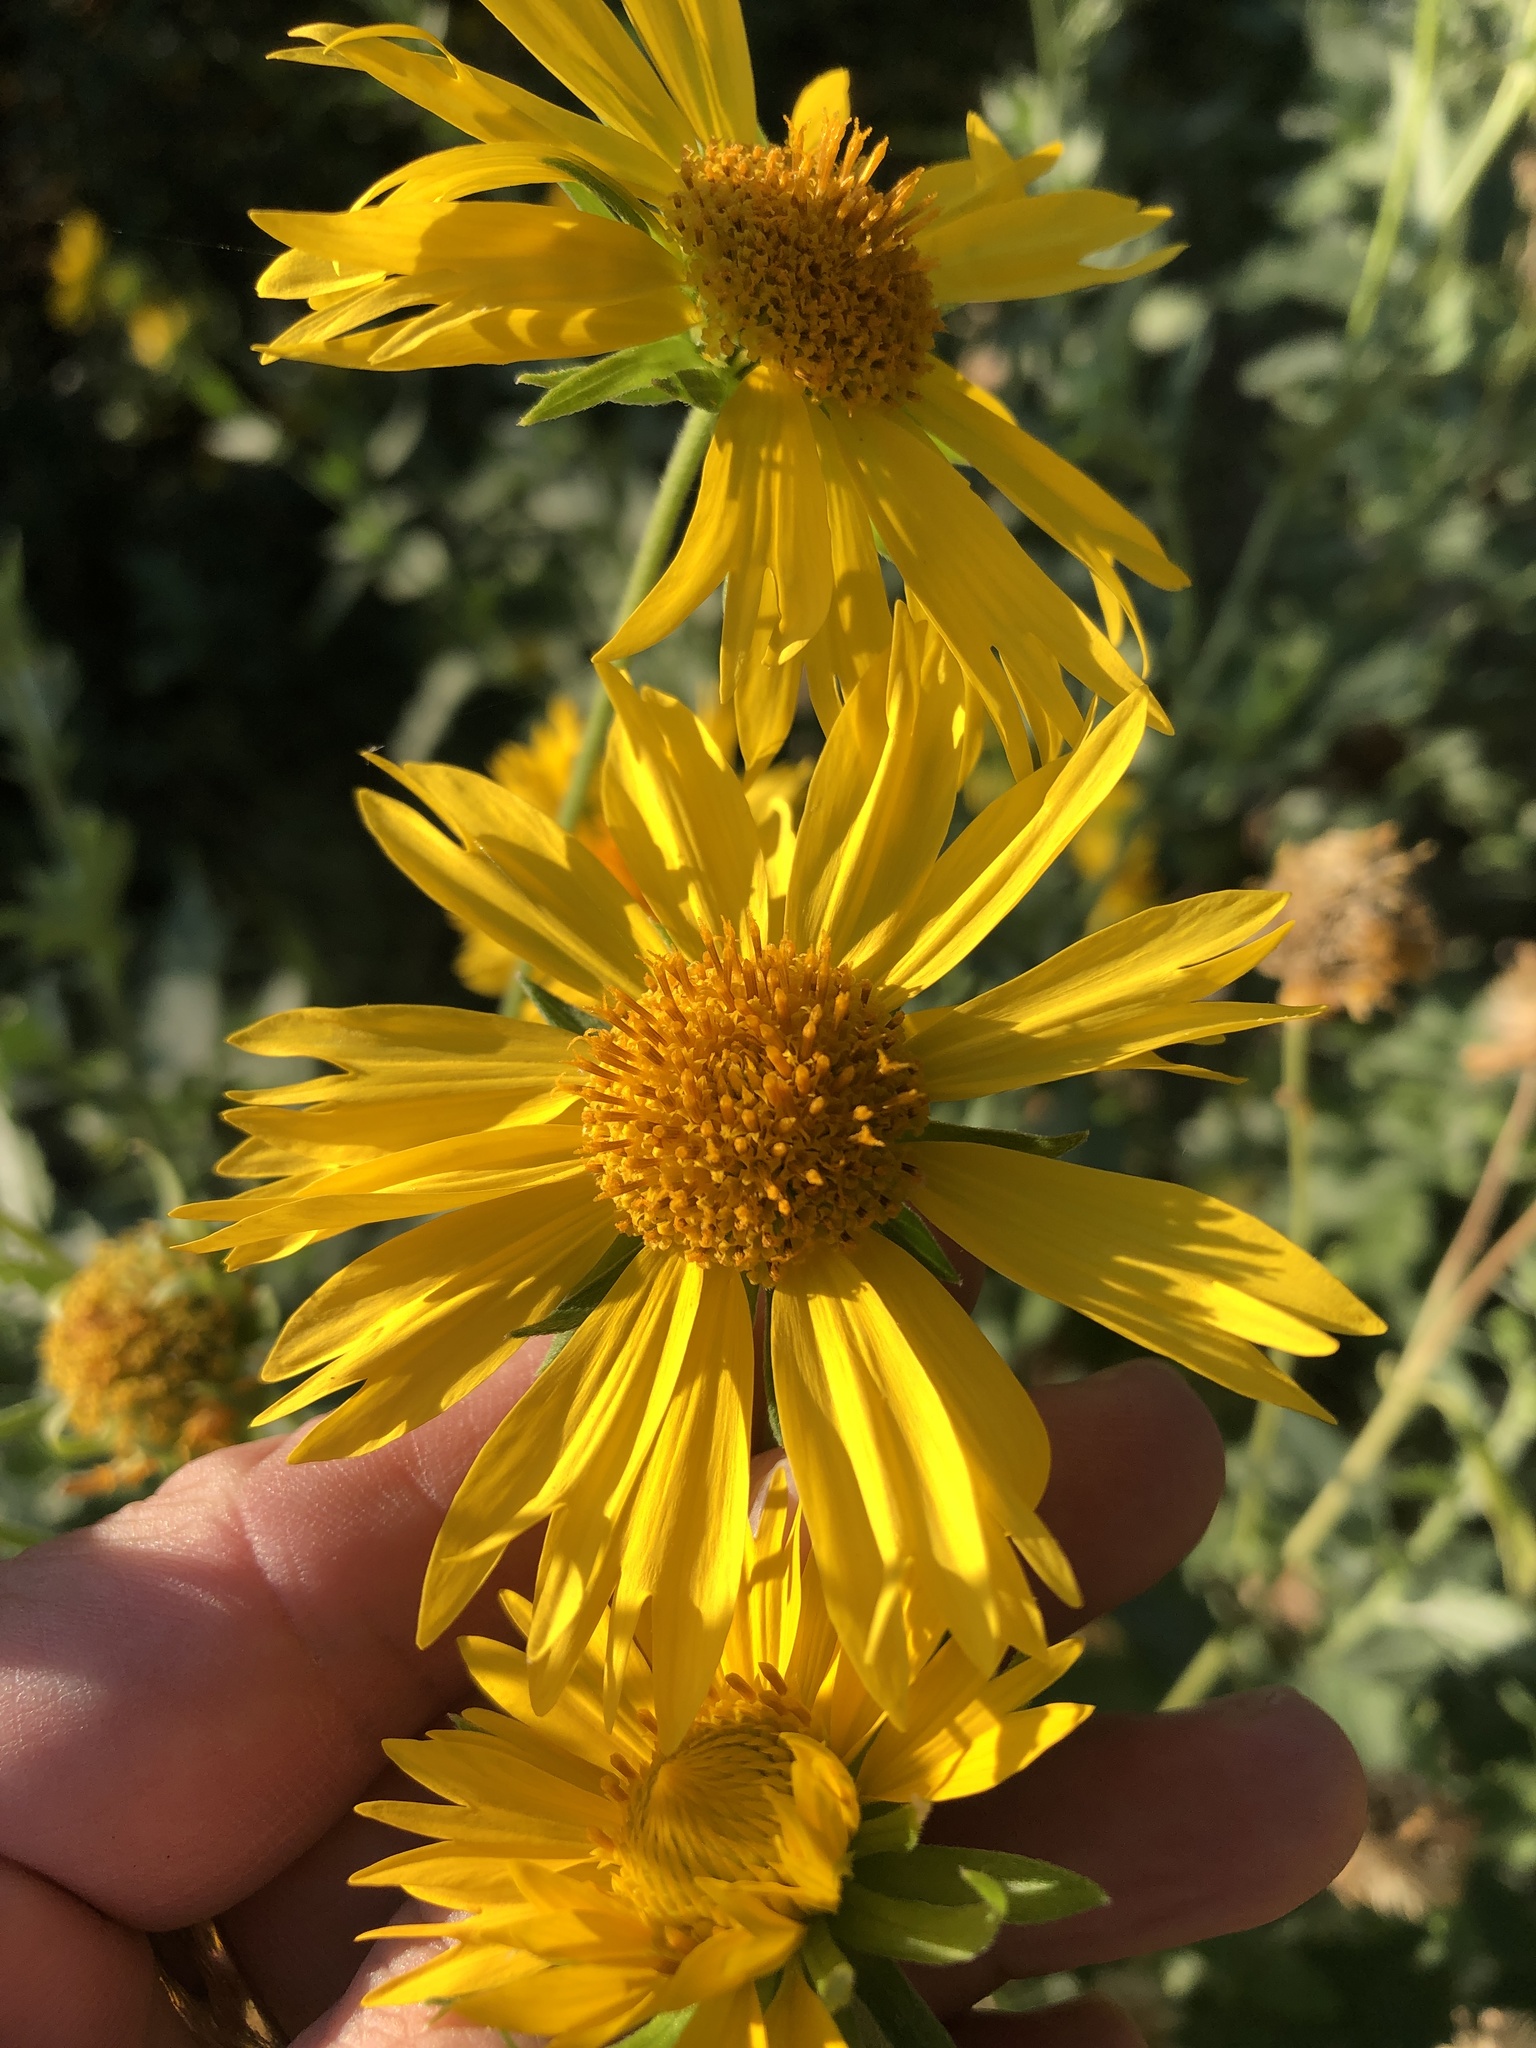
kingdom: Plantae
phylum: Tracheophyta
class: Magnoliopsida
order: Asterales
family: Asteraceae
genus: Verbesina
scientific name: Verbesina encelioides
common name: Golden crownbeard
